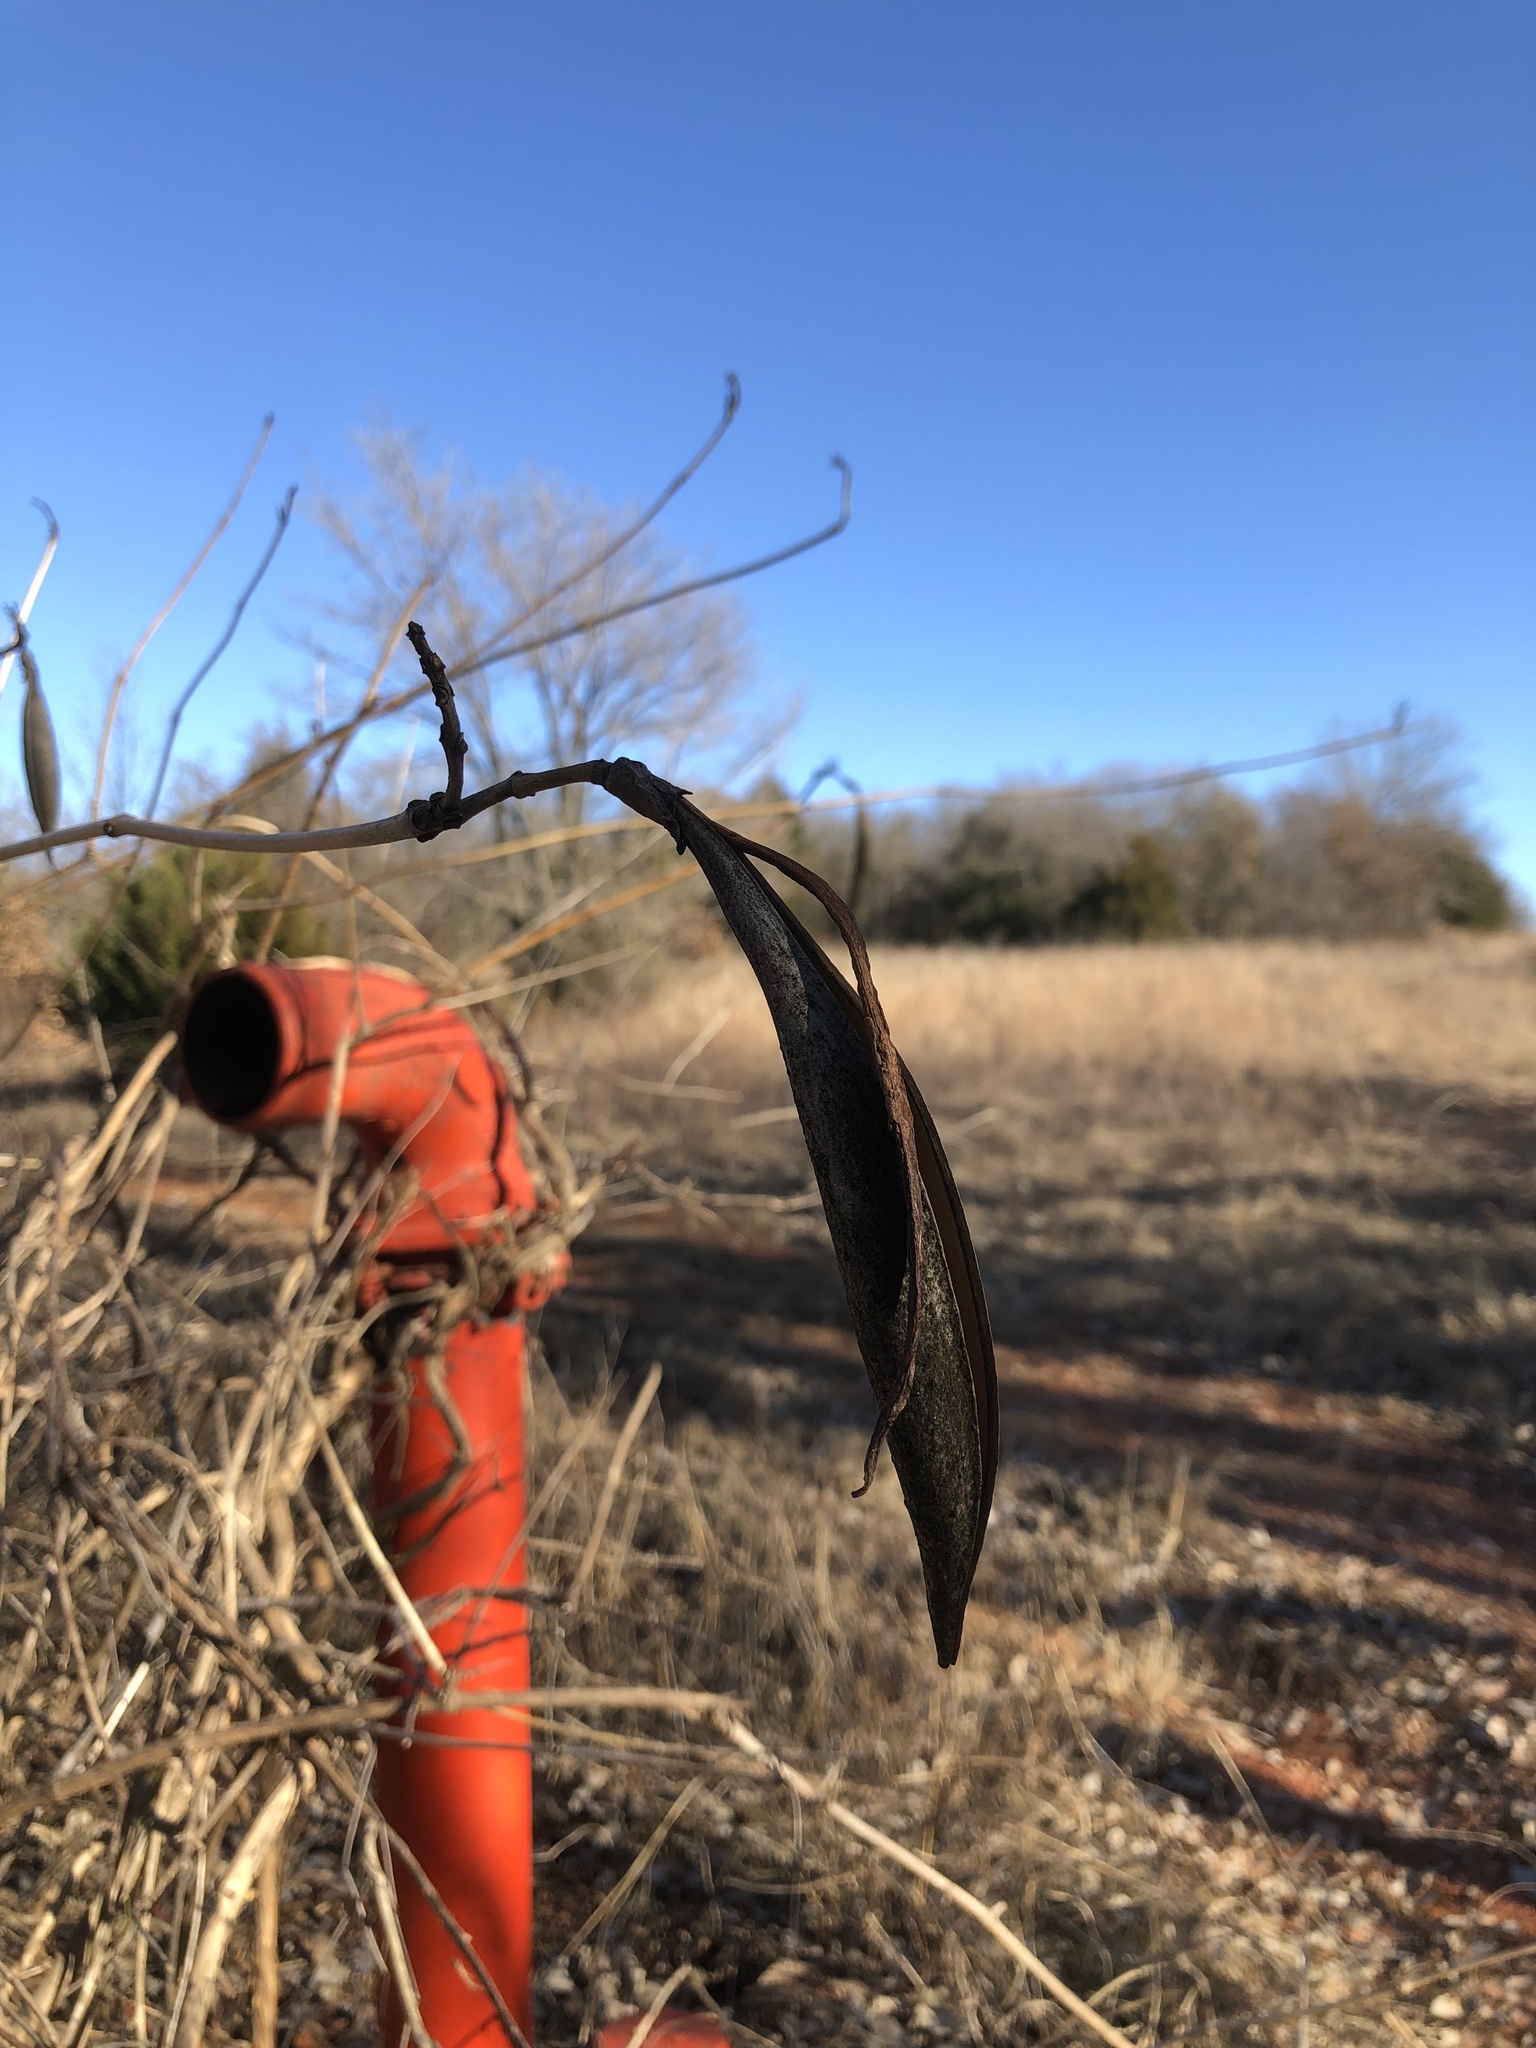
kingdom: Plantae
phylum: Tracheophyta
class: Magnoliopsida
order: Lamiales
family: Bignoniaceae
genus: Campsis
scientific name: Campsis radicans
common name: Trumpet-creeper
